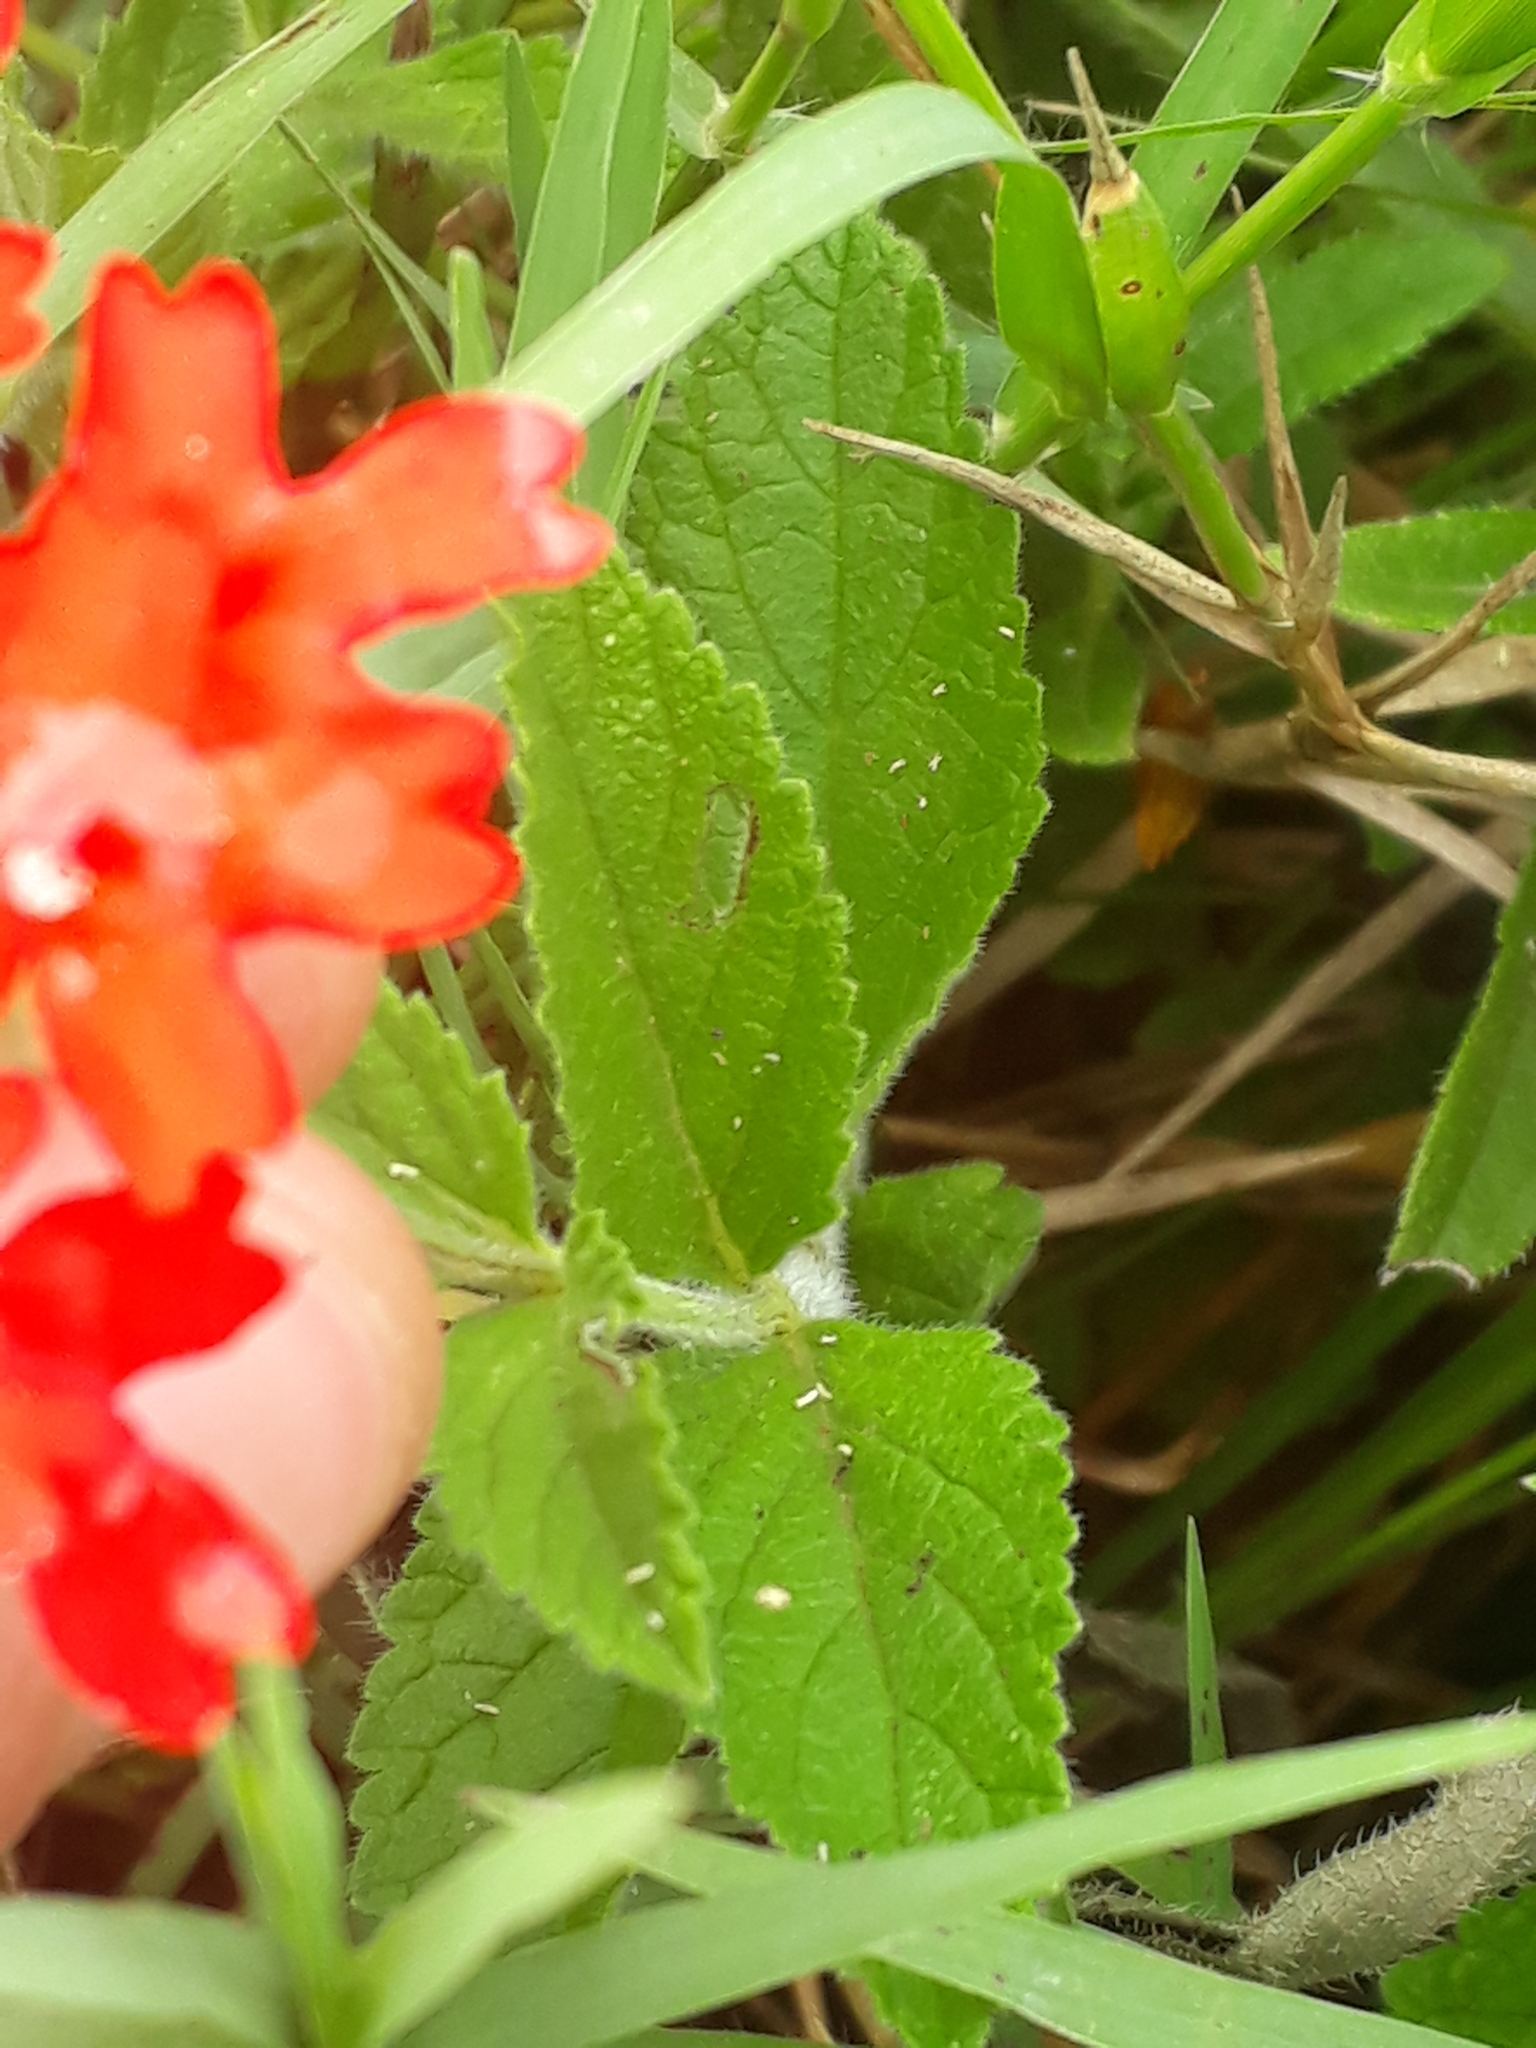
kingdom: Plantae
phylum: Tracheophyta
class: Magnoliopsida
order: Lamiales
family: Verbenaceae
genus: Verbena
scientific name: Verbena peruviana
